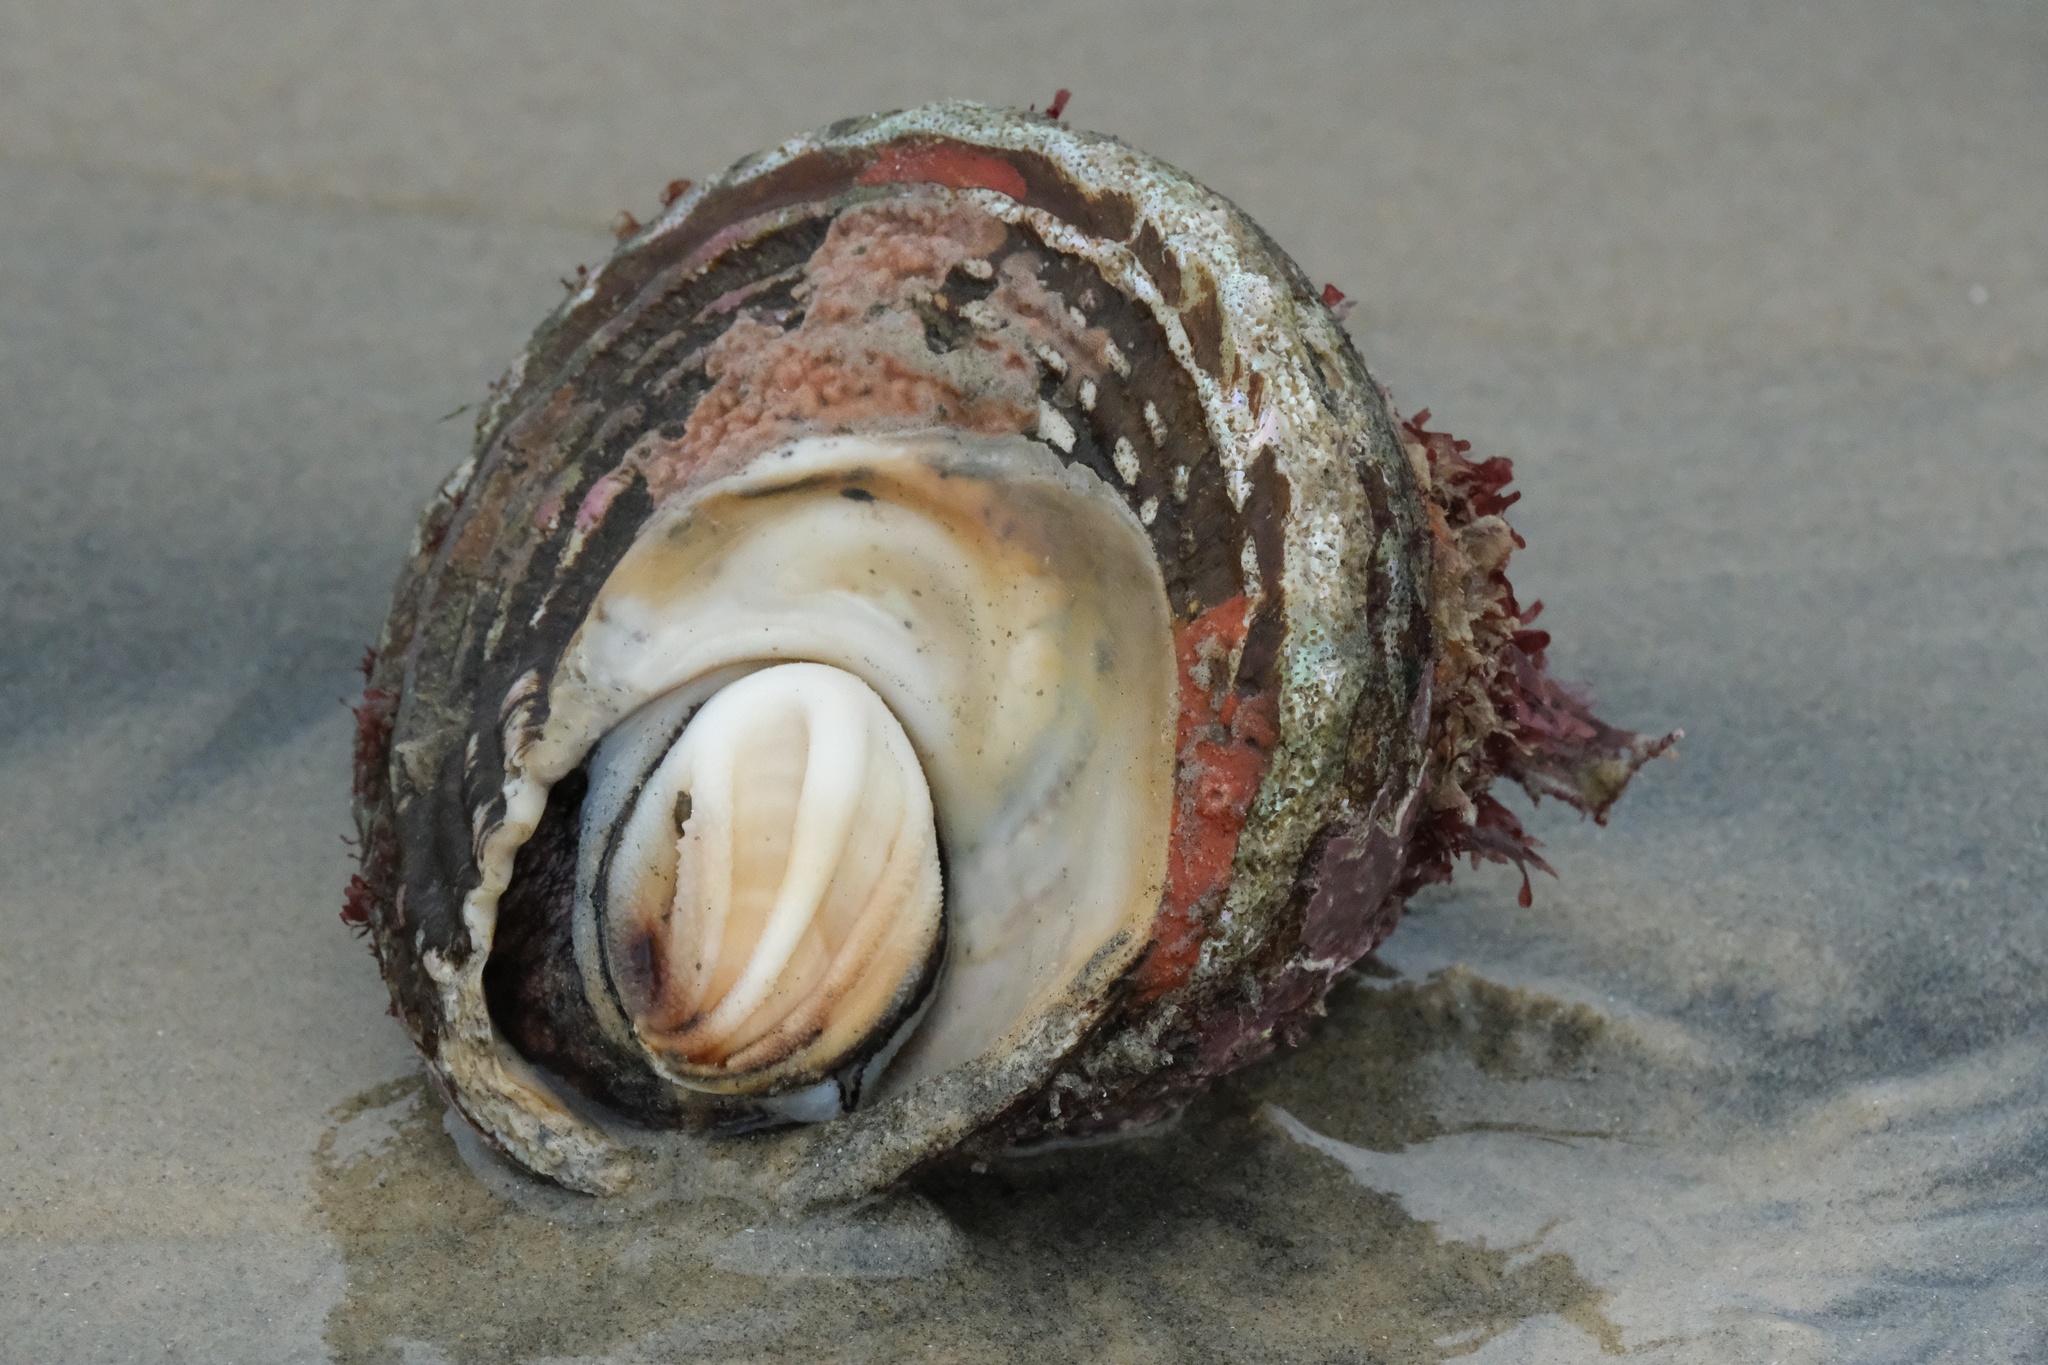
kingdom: Animalia
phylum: Mollusca
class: Gastropoda
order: Trochida
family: Turbinidae
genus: Megastraea
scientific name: Megastraea undosa
